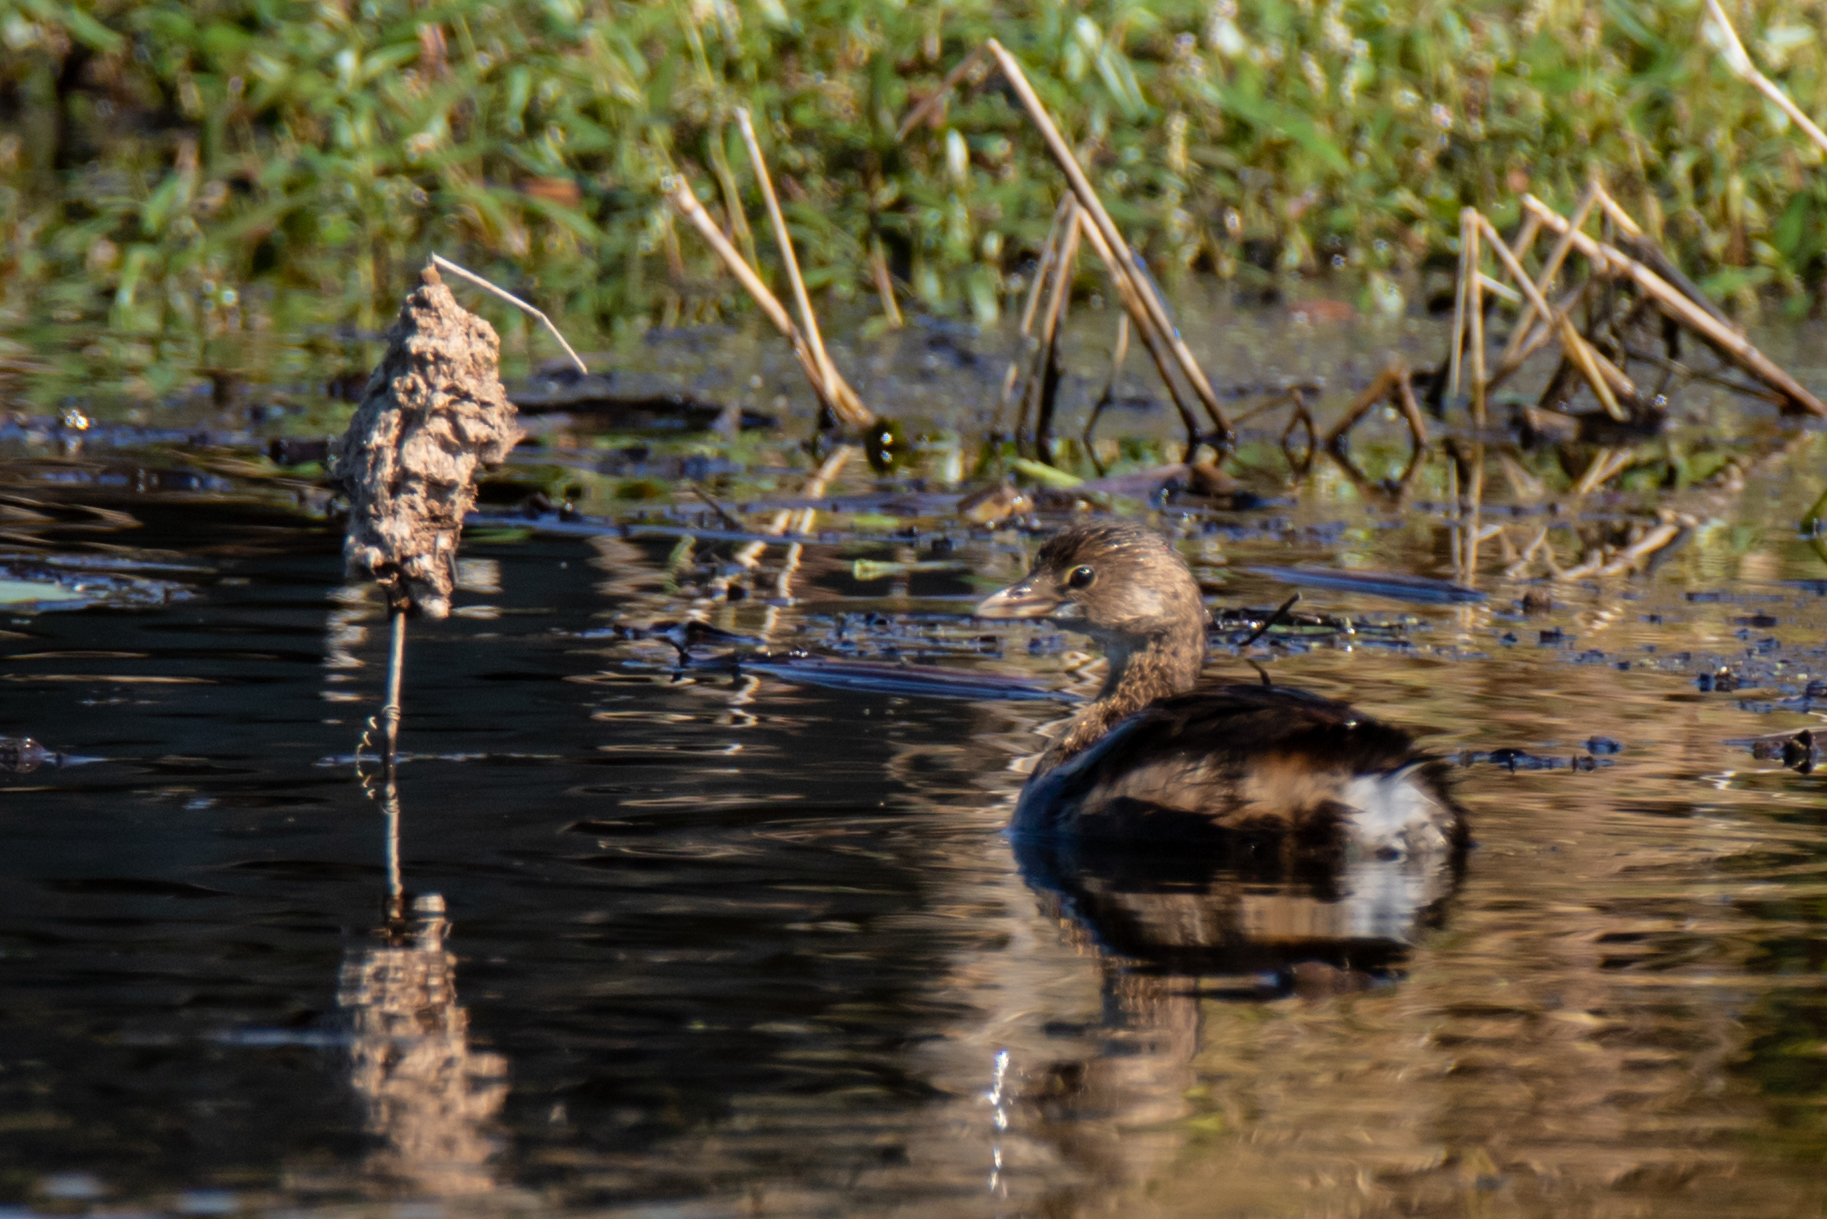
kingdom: Animalia
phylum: Chordata
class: Aves
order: Podicipediformes
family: Podicipedidae
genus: Podilymbus
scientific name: Podilymbus podiceps
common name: Pied-billed grebe
